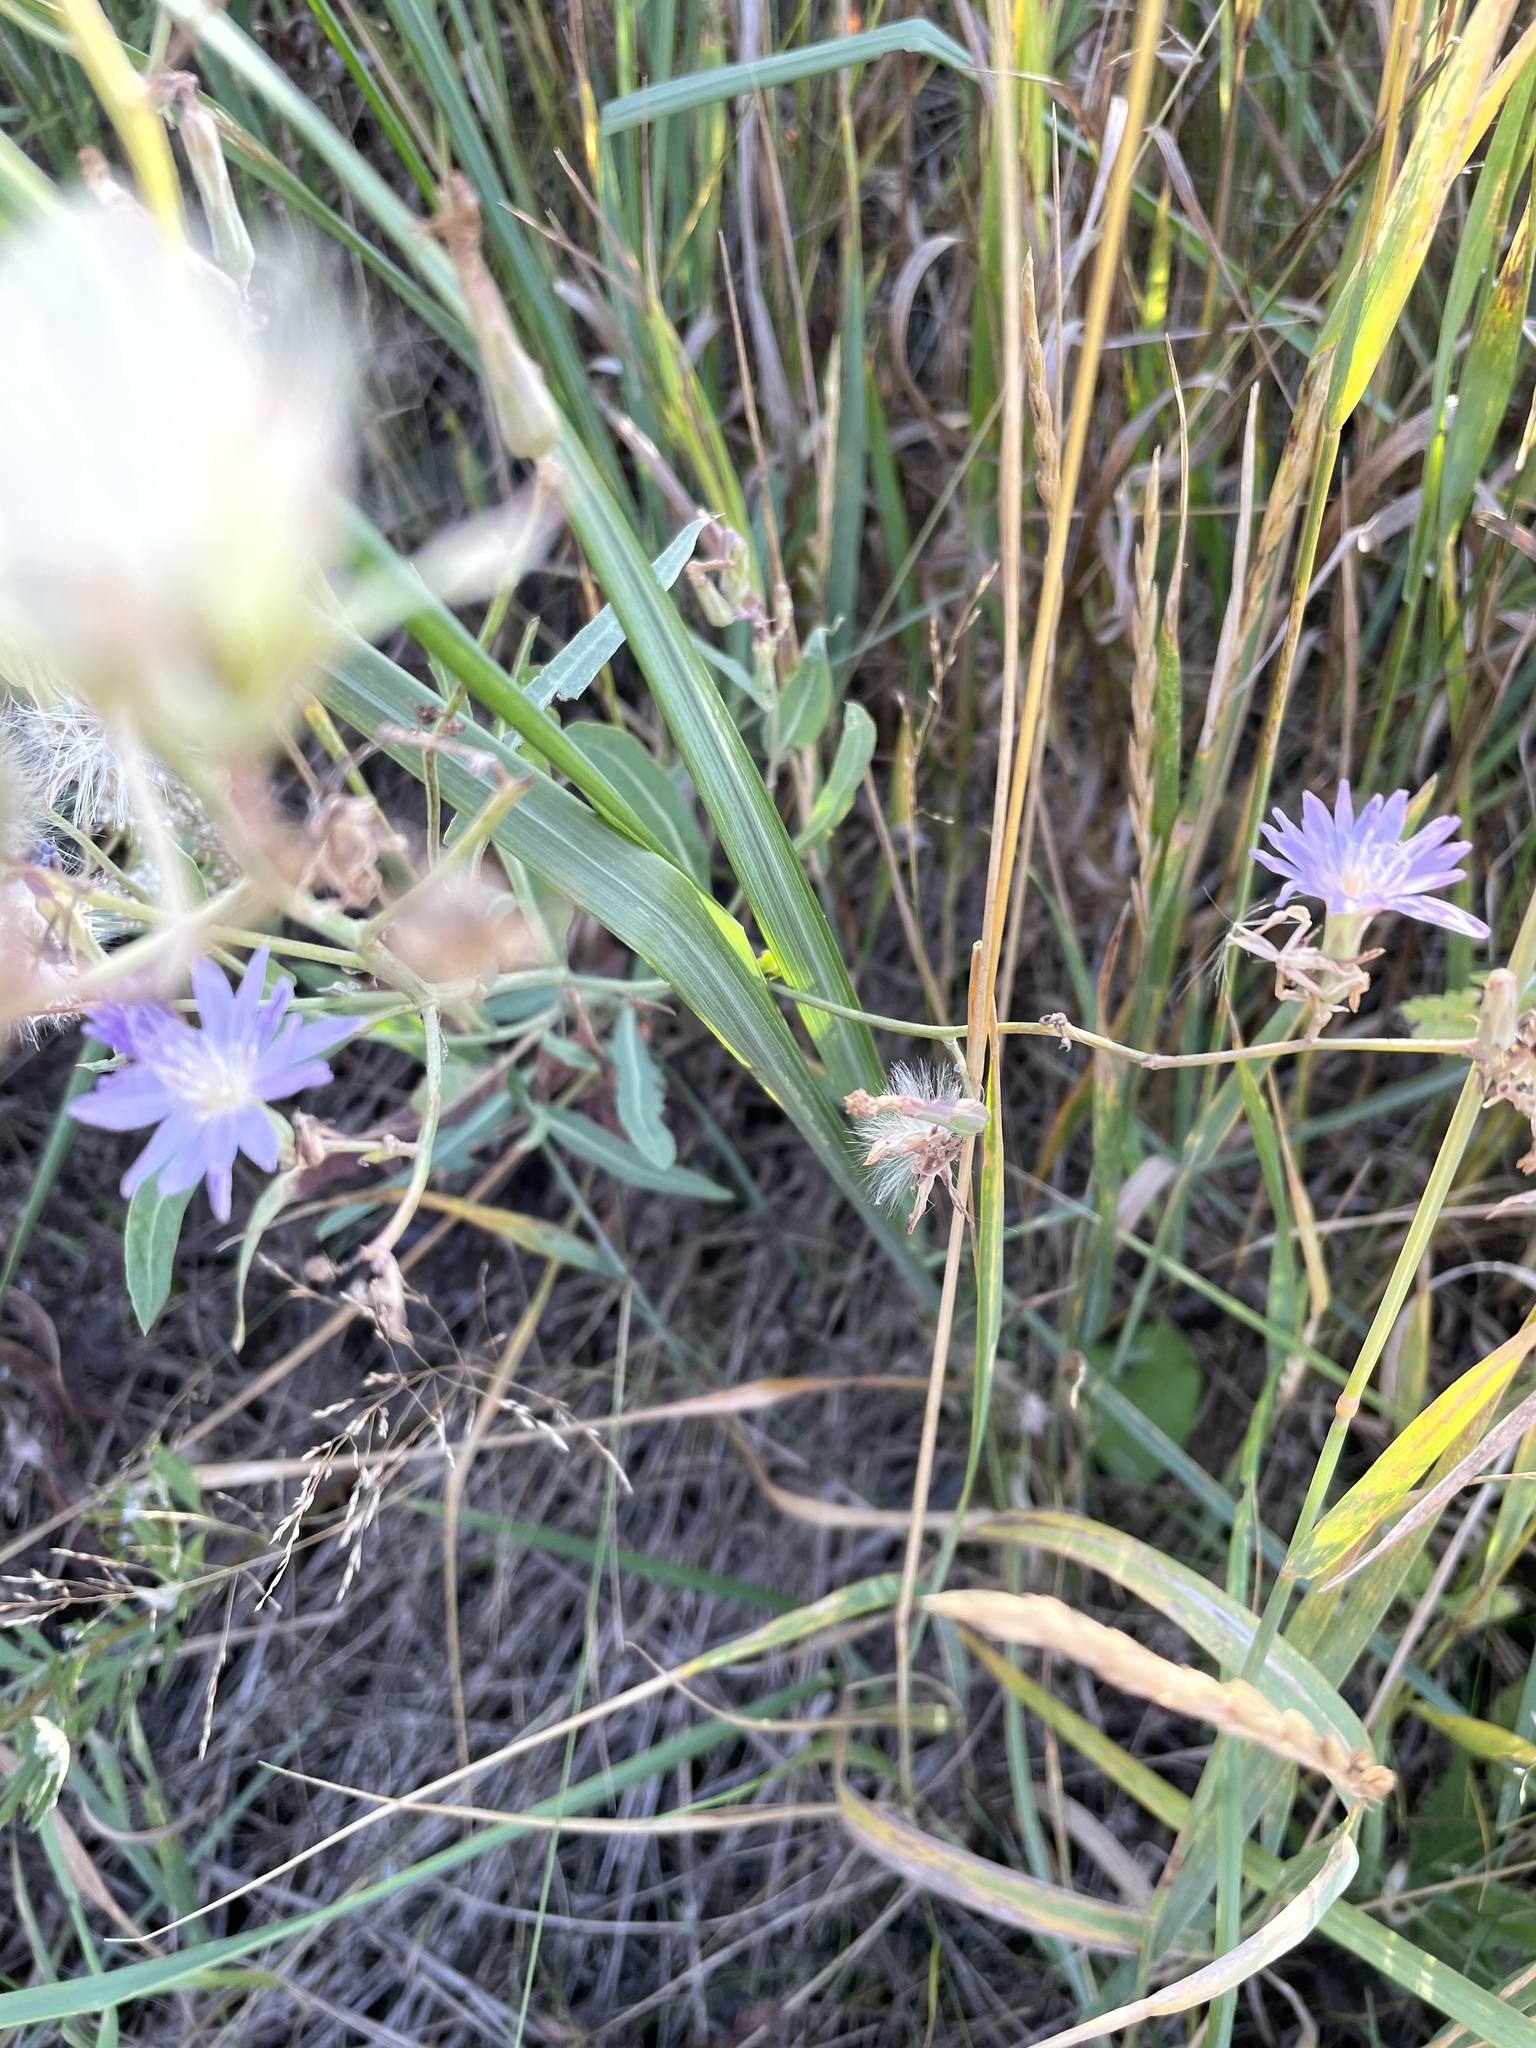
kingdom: Plantae
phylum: Tracheophyta
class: Magnoliopsida
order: Asterales
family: Asteraceae
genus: Lactuca
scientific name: Lactuca tatarica
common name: Blue lettuce
